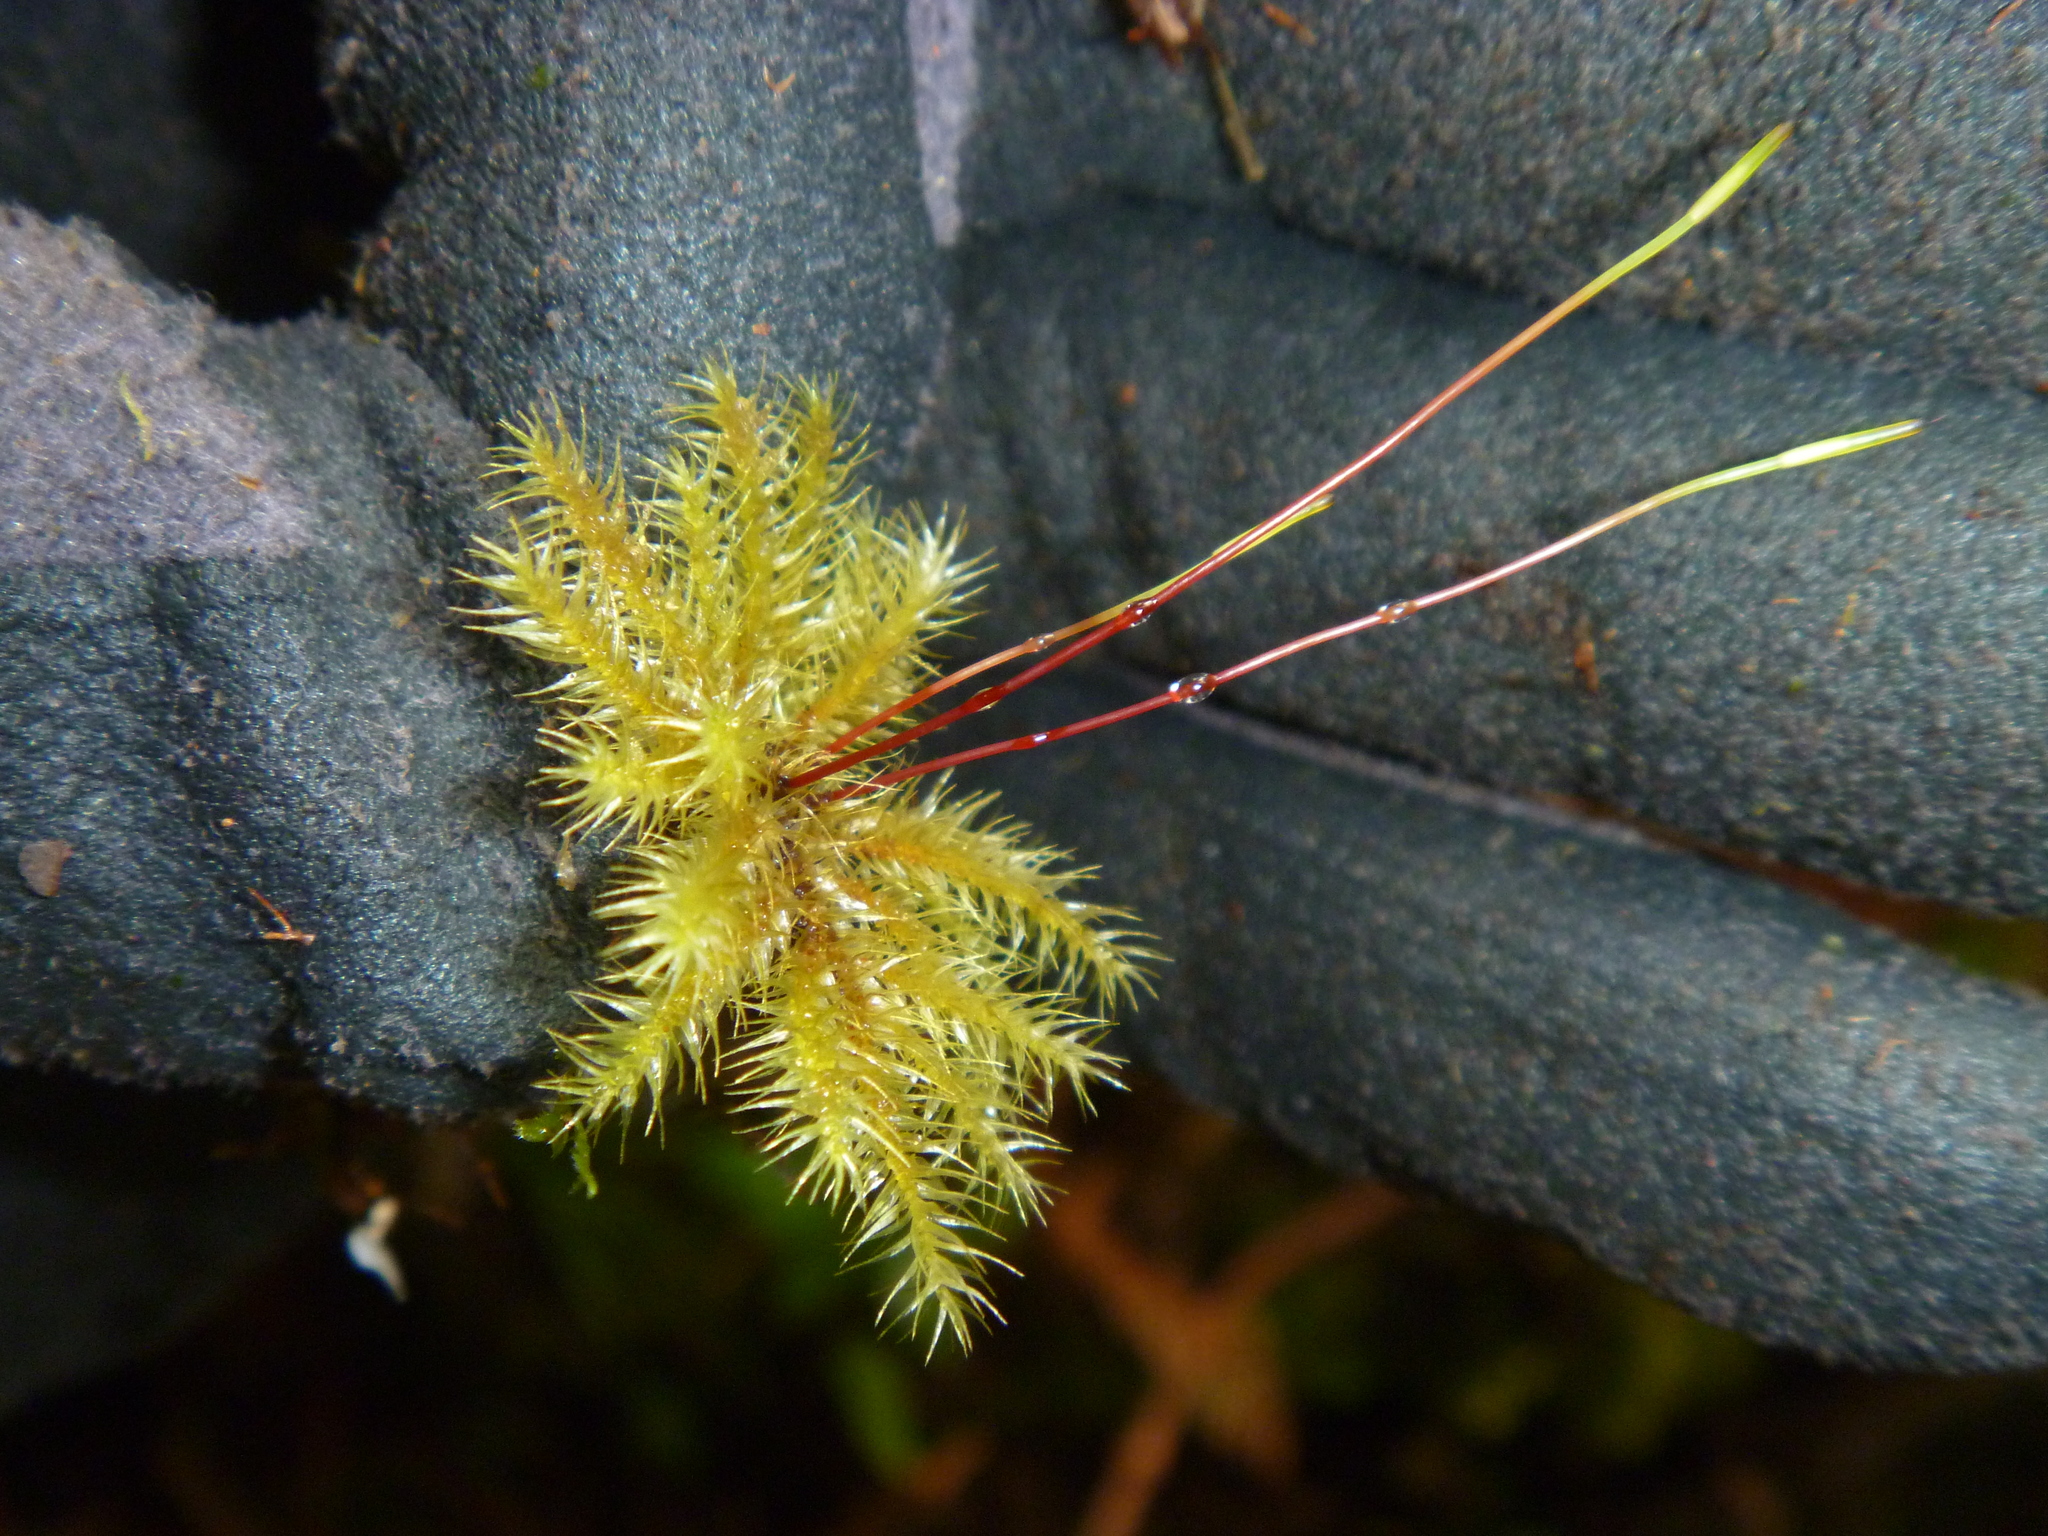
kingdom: Plantae
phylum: Bryophyta
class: Bryopsida
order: Hypnodendrales
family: Spiridentaceae
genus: Mniodendron
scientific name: Mniodendron colensoi
